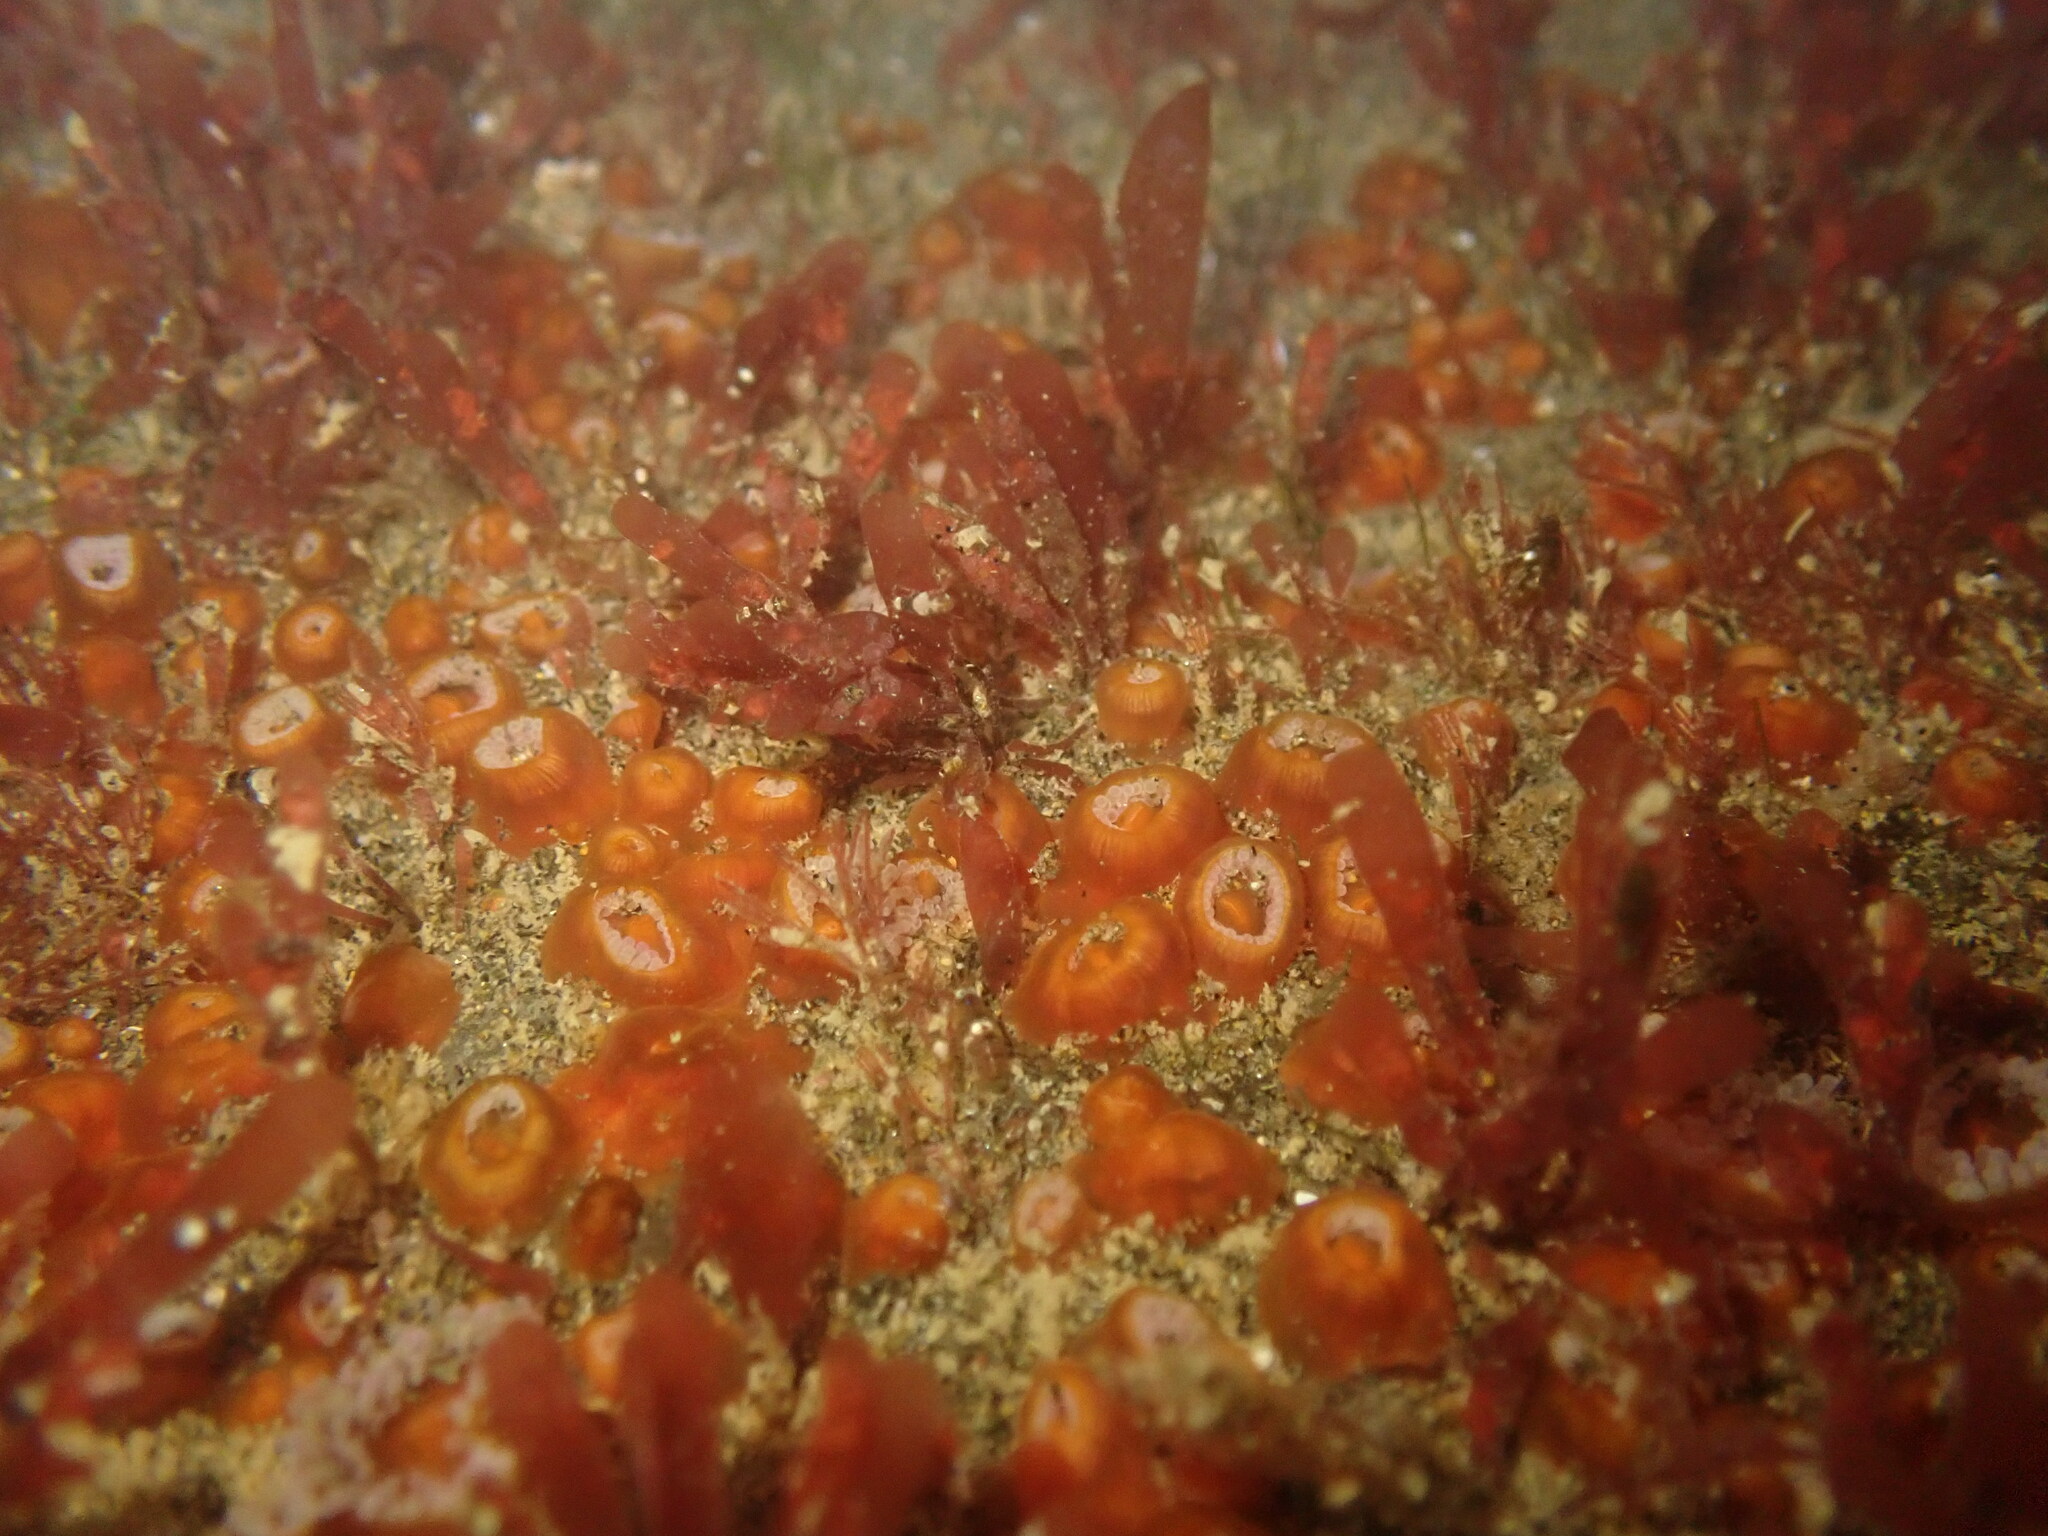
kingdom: Animalia
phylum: Cnidaria
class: Anthozoa
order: Corallimorpharia
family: Corallimorphidae
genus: Corynactis
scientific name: Corynactis australis
